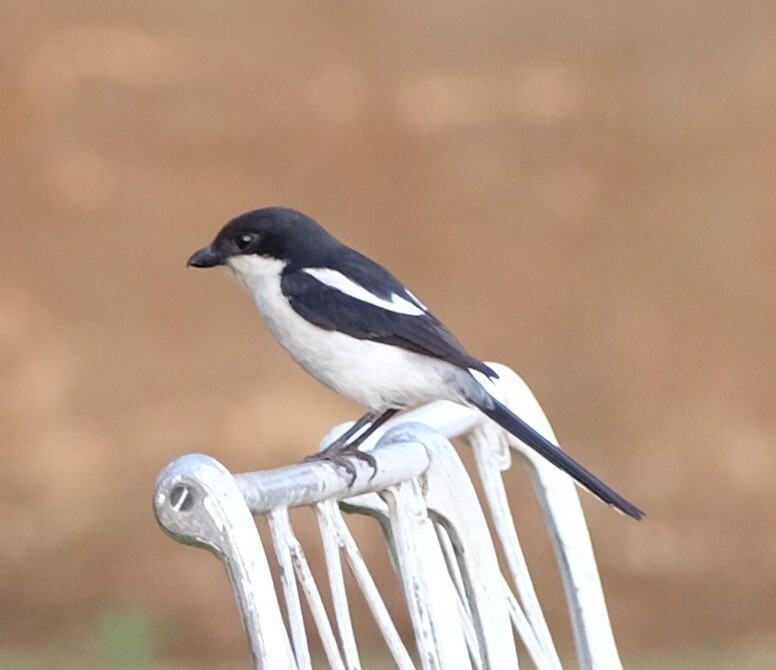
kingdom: Animalia
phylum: Chordata
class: Aves
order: Passeriformes
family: Laniidae
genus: Lanius
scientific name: Lanius collaris
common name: Southern fiscal
